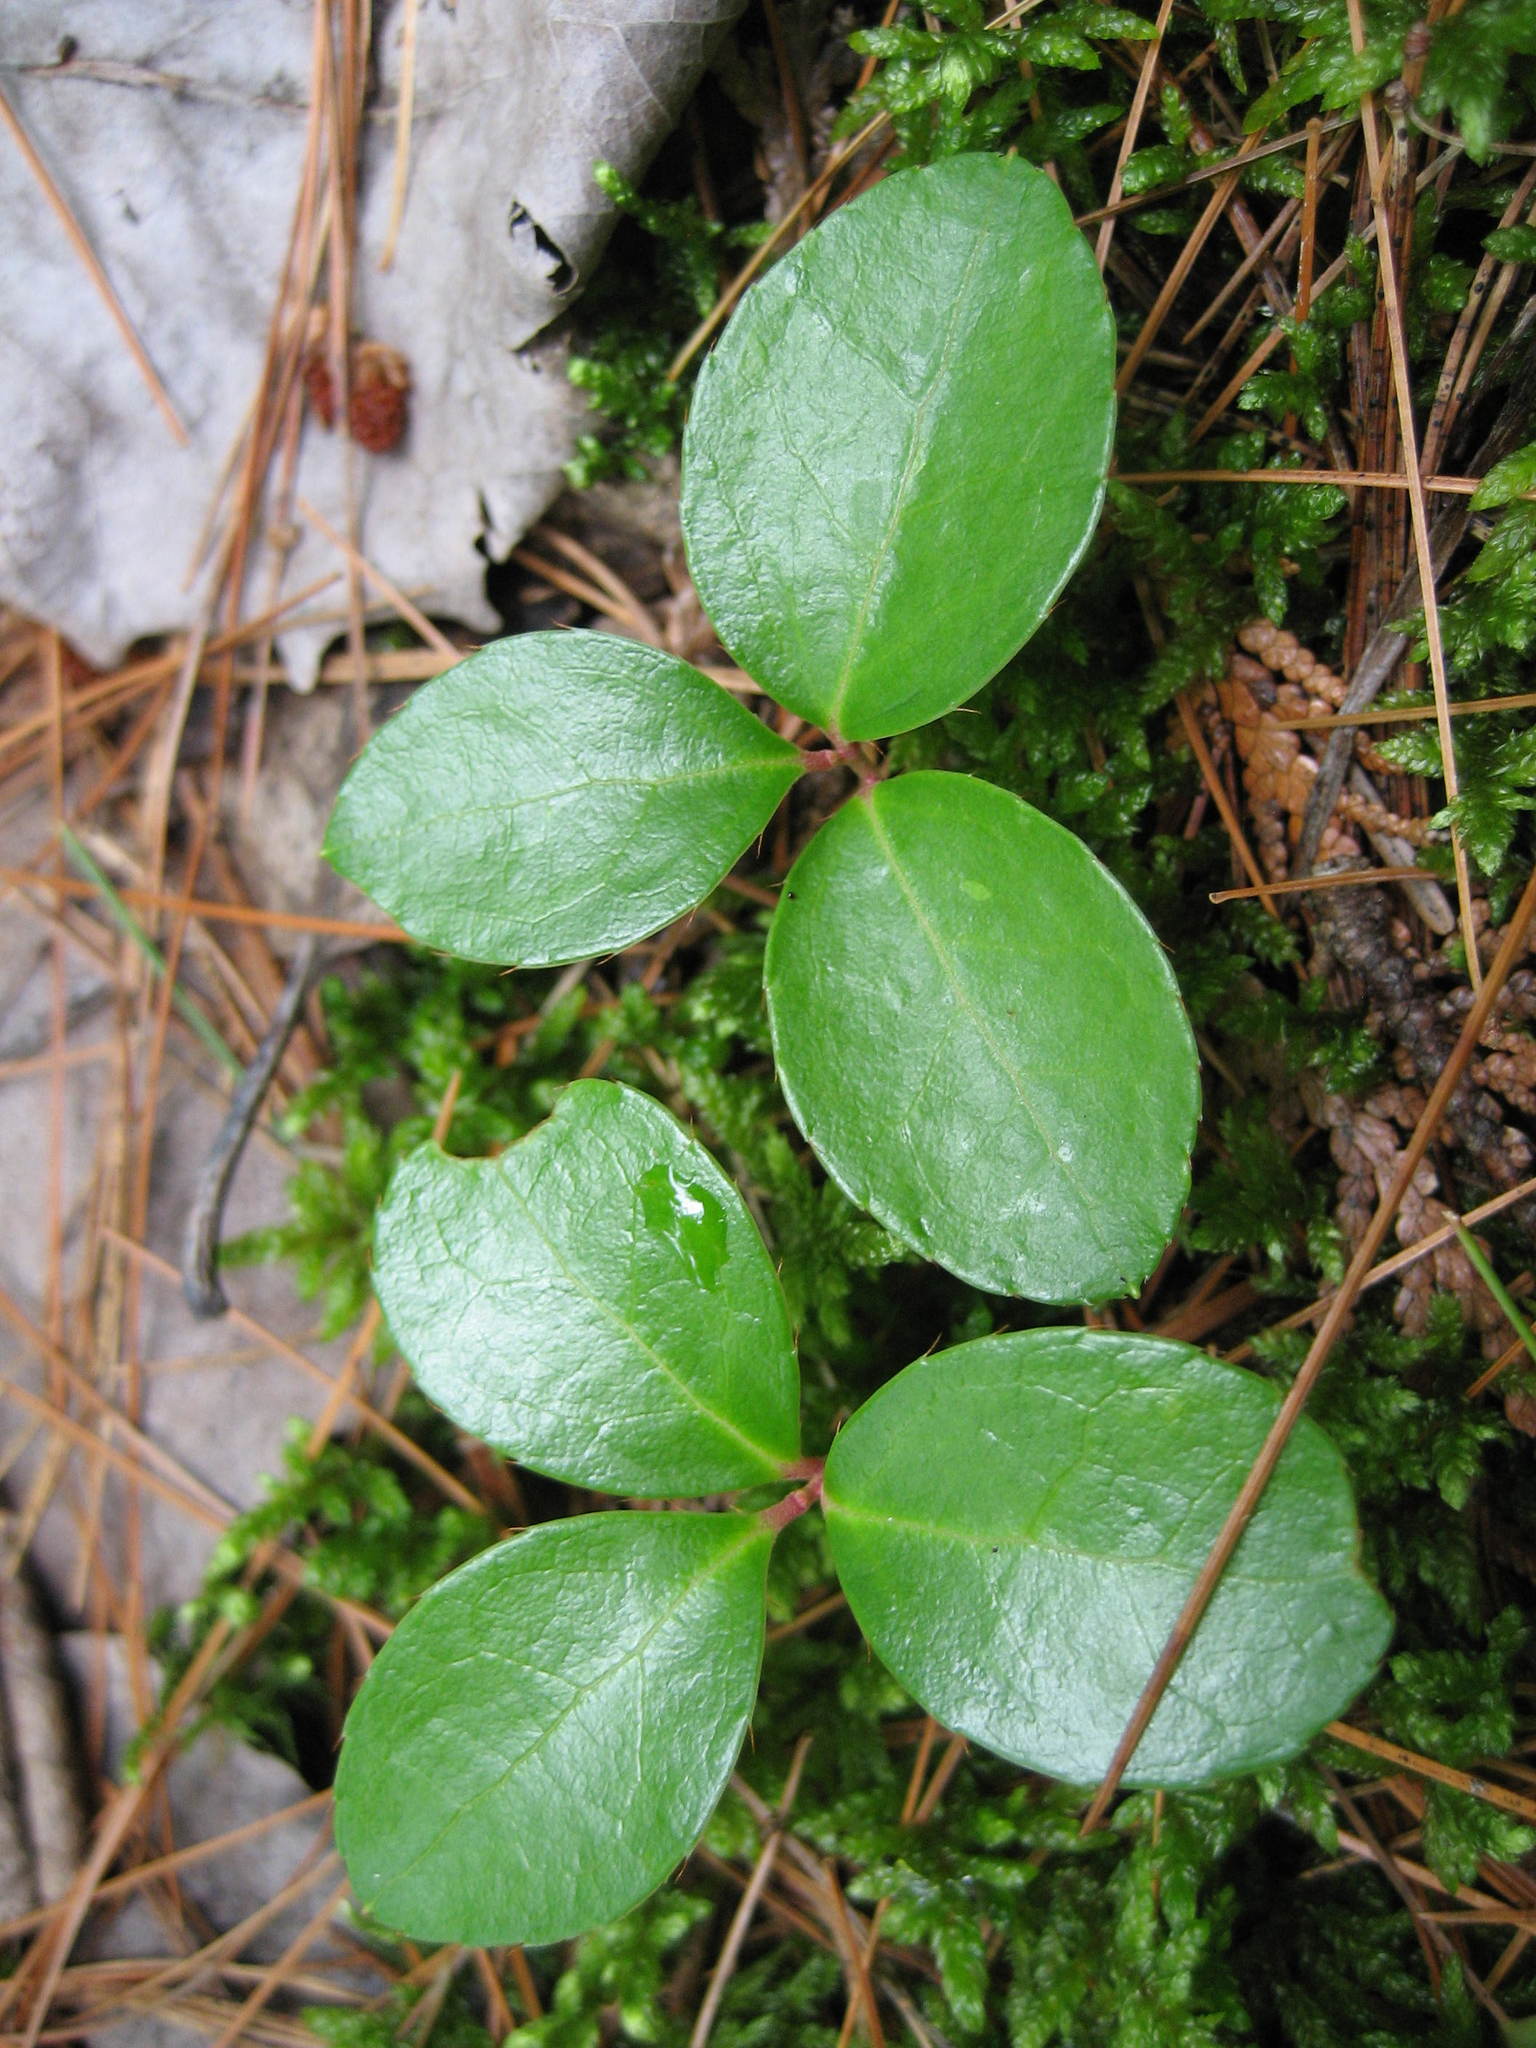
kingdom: Plantae
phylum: Tracheophyta
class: Magnoliopsida
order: Ericales
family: Ericaceae
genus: Gaultheria
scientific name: Gaultheria procumbens
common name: Checkerberry
